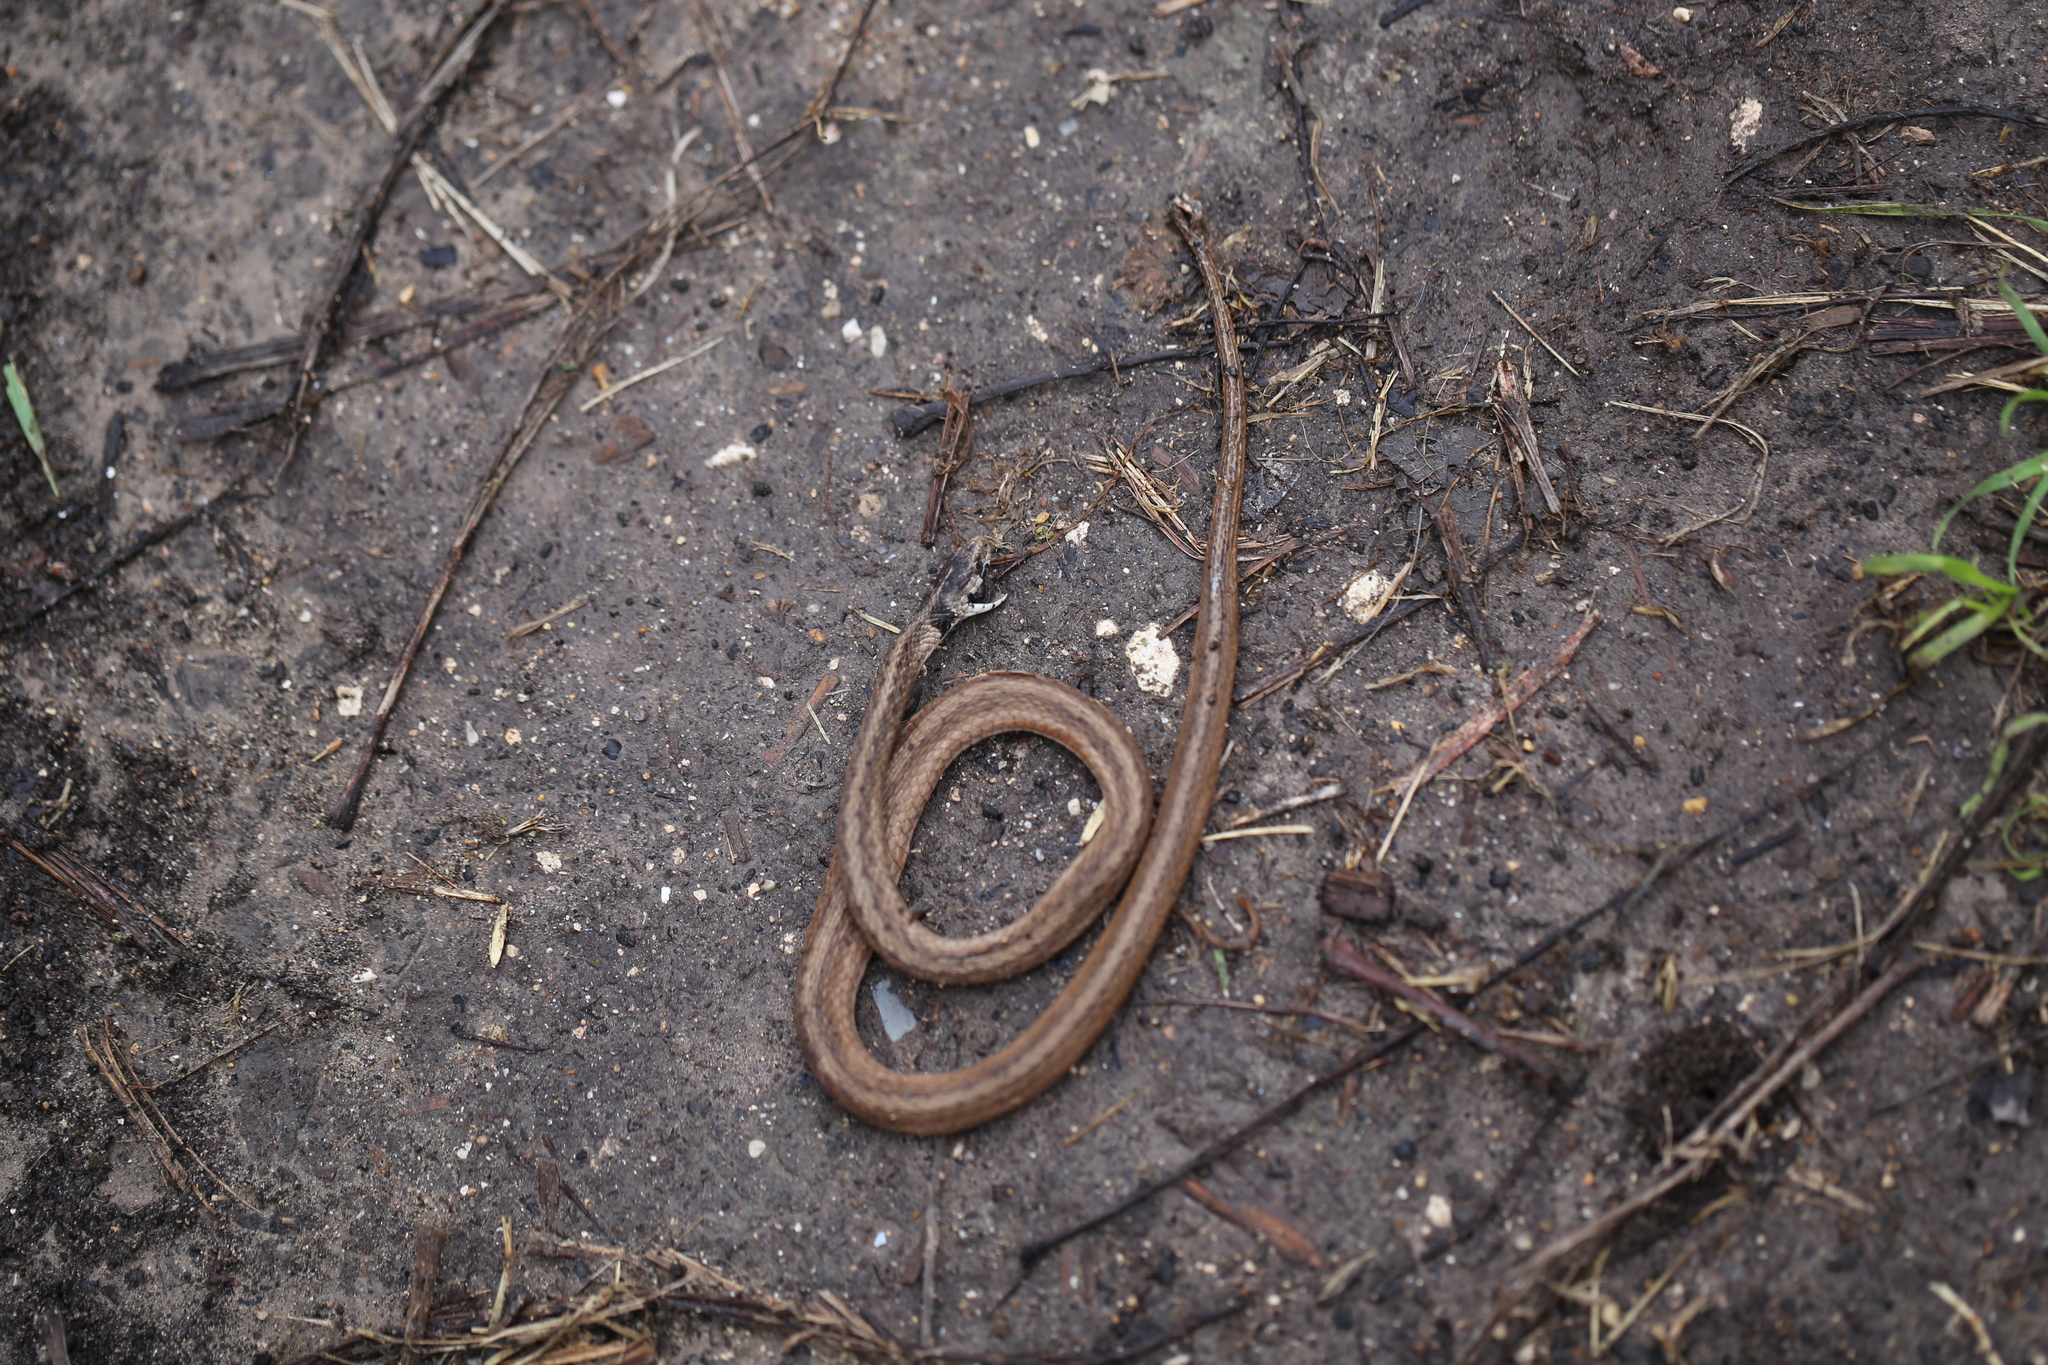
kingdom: Animalia
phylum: Chordata
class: Squamata
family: Colubridae
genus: Storeria
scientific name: Storeria dekayi
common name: (dekay’s) brown snake
